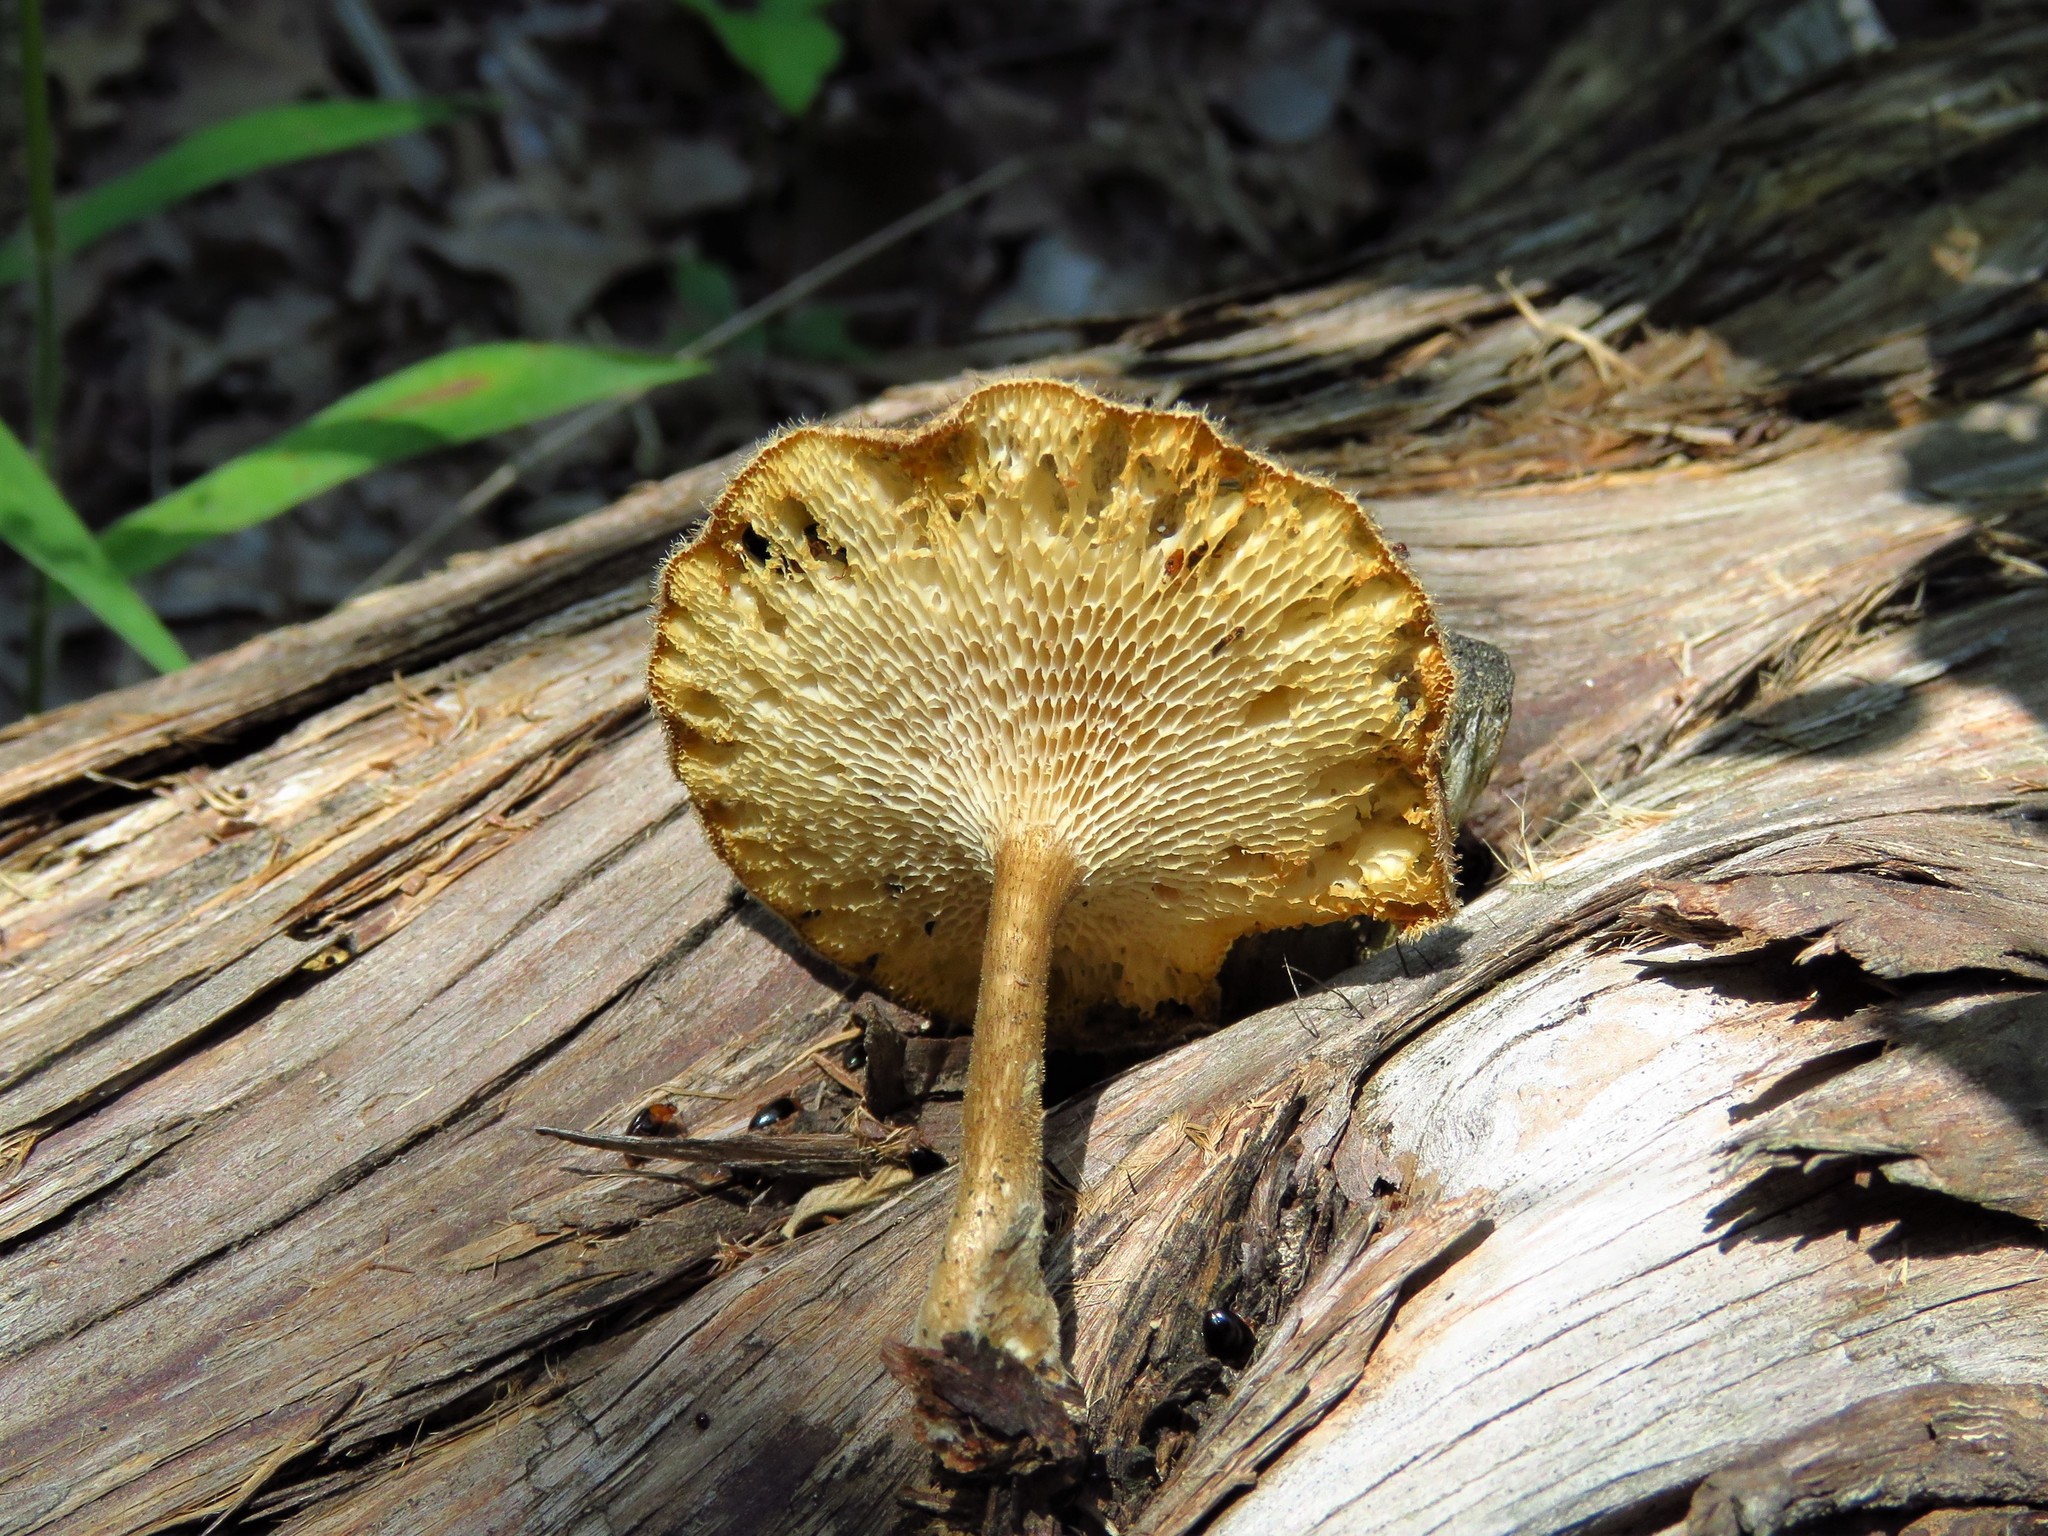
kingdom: Fungi
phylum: Basidiomycota
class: Agaricomycetes
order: Polyporales
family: Polyporaceae
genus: Lentinus
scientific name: Lentinus arcularius
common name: Spring polypore
